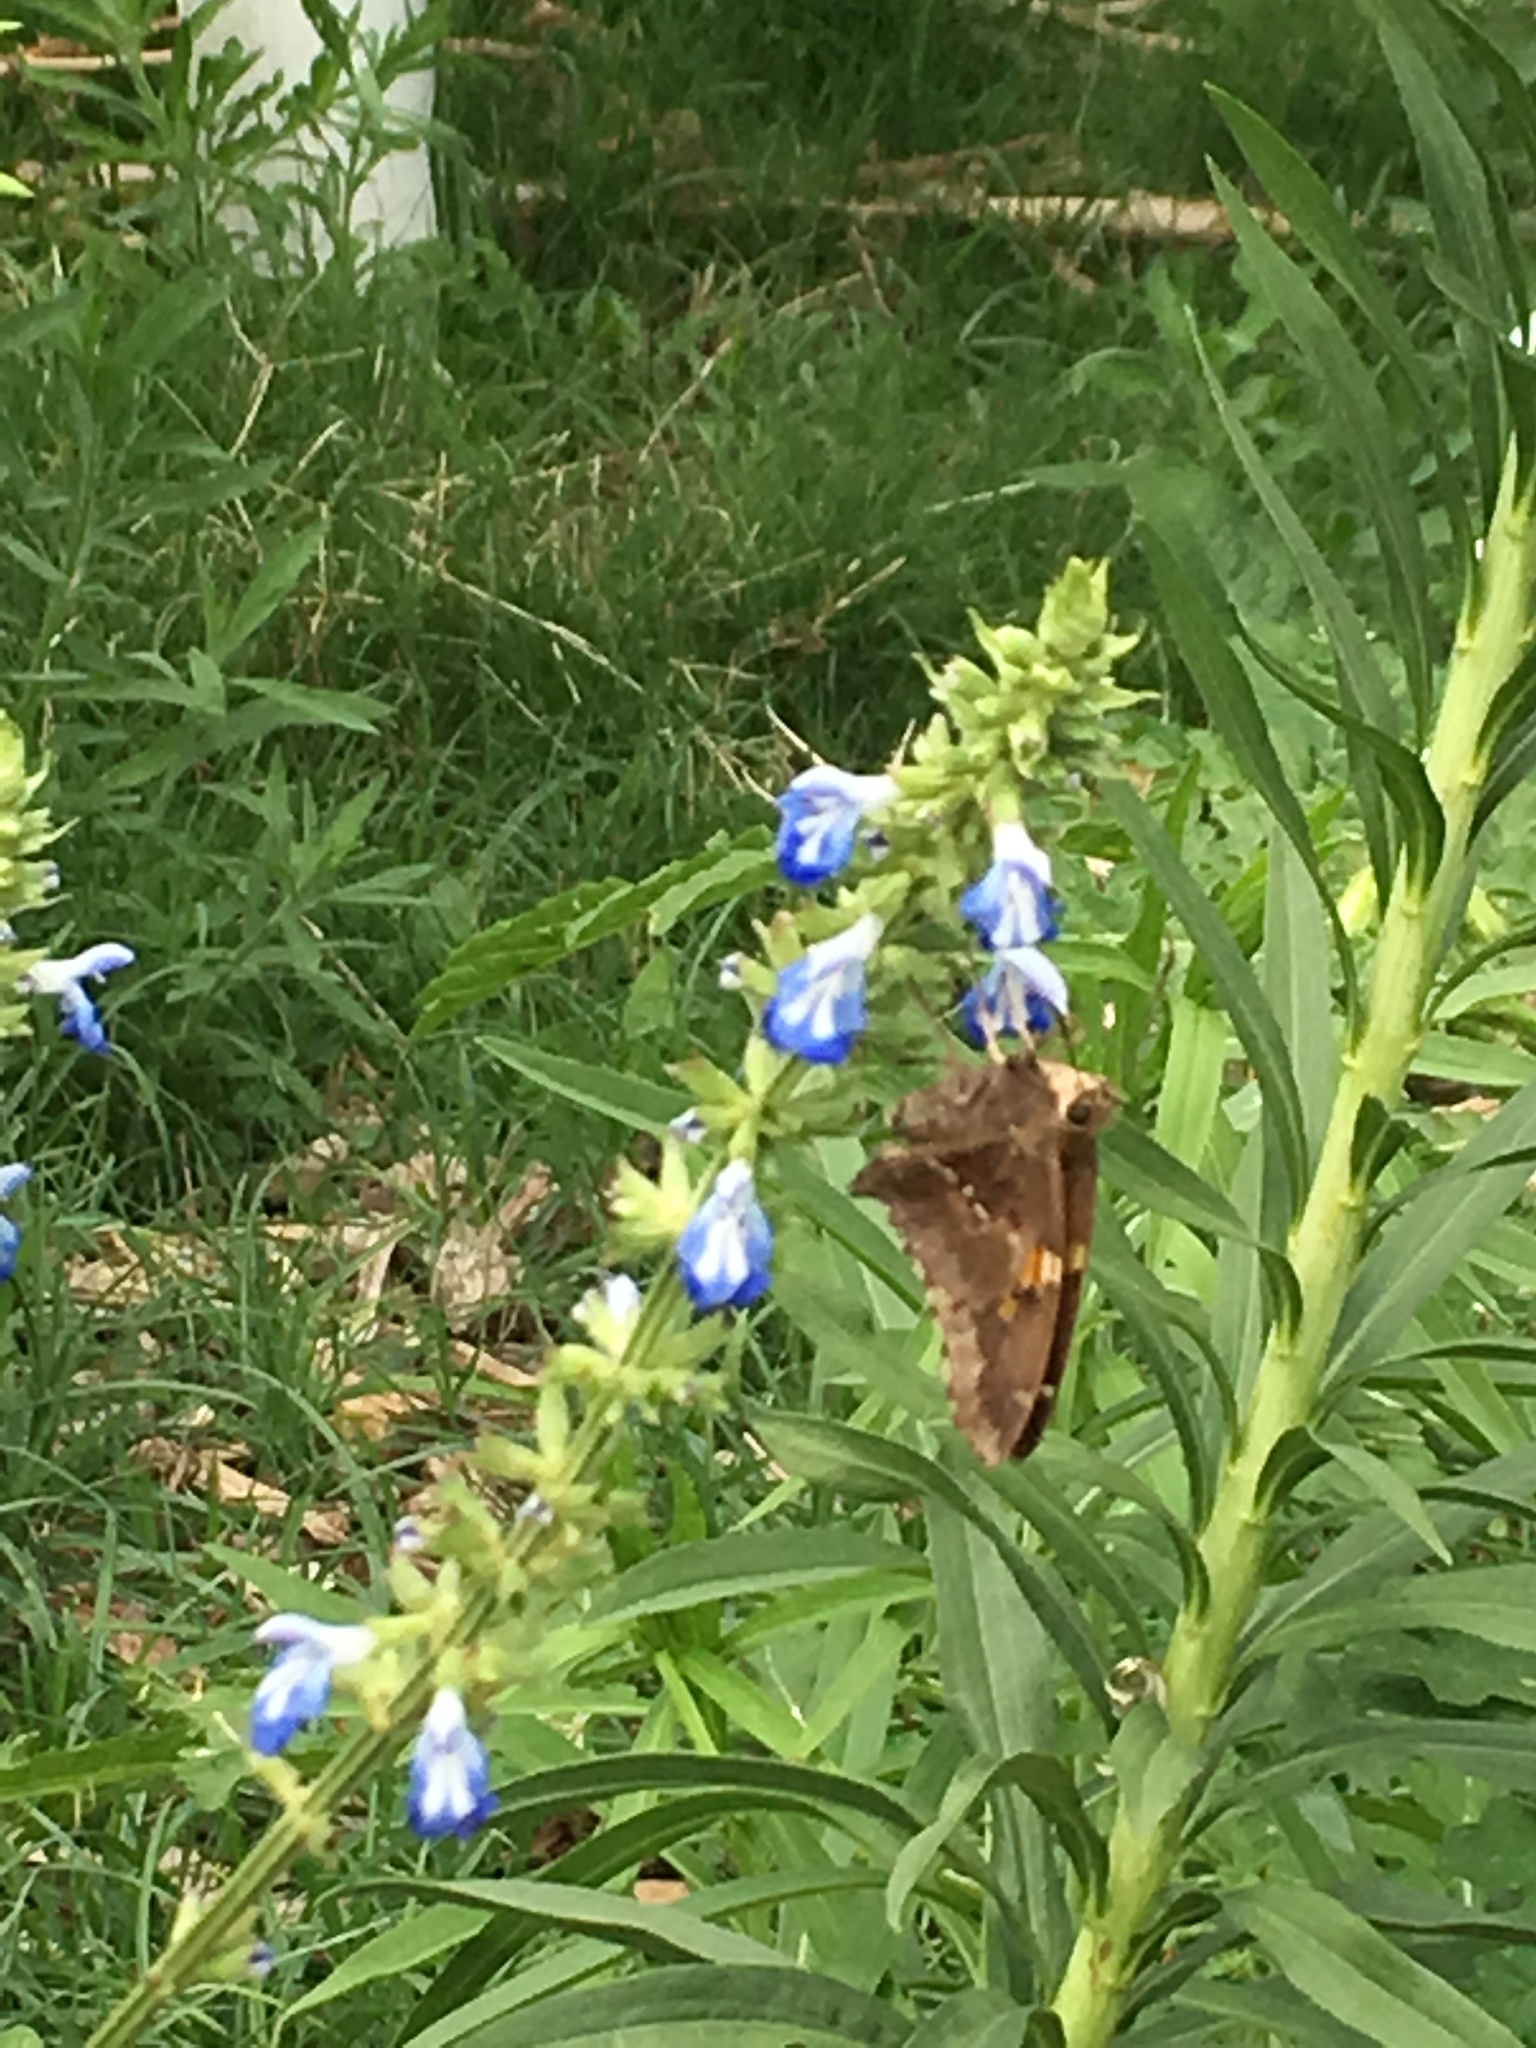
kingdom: Animalia
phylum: Arthropoda
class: Insecta
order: Lepidoptera
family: Hesperiidae
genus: Epargyreus
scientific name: Epargyreus tmolis
